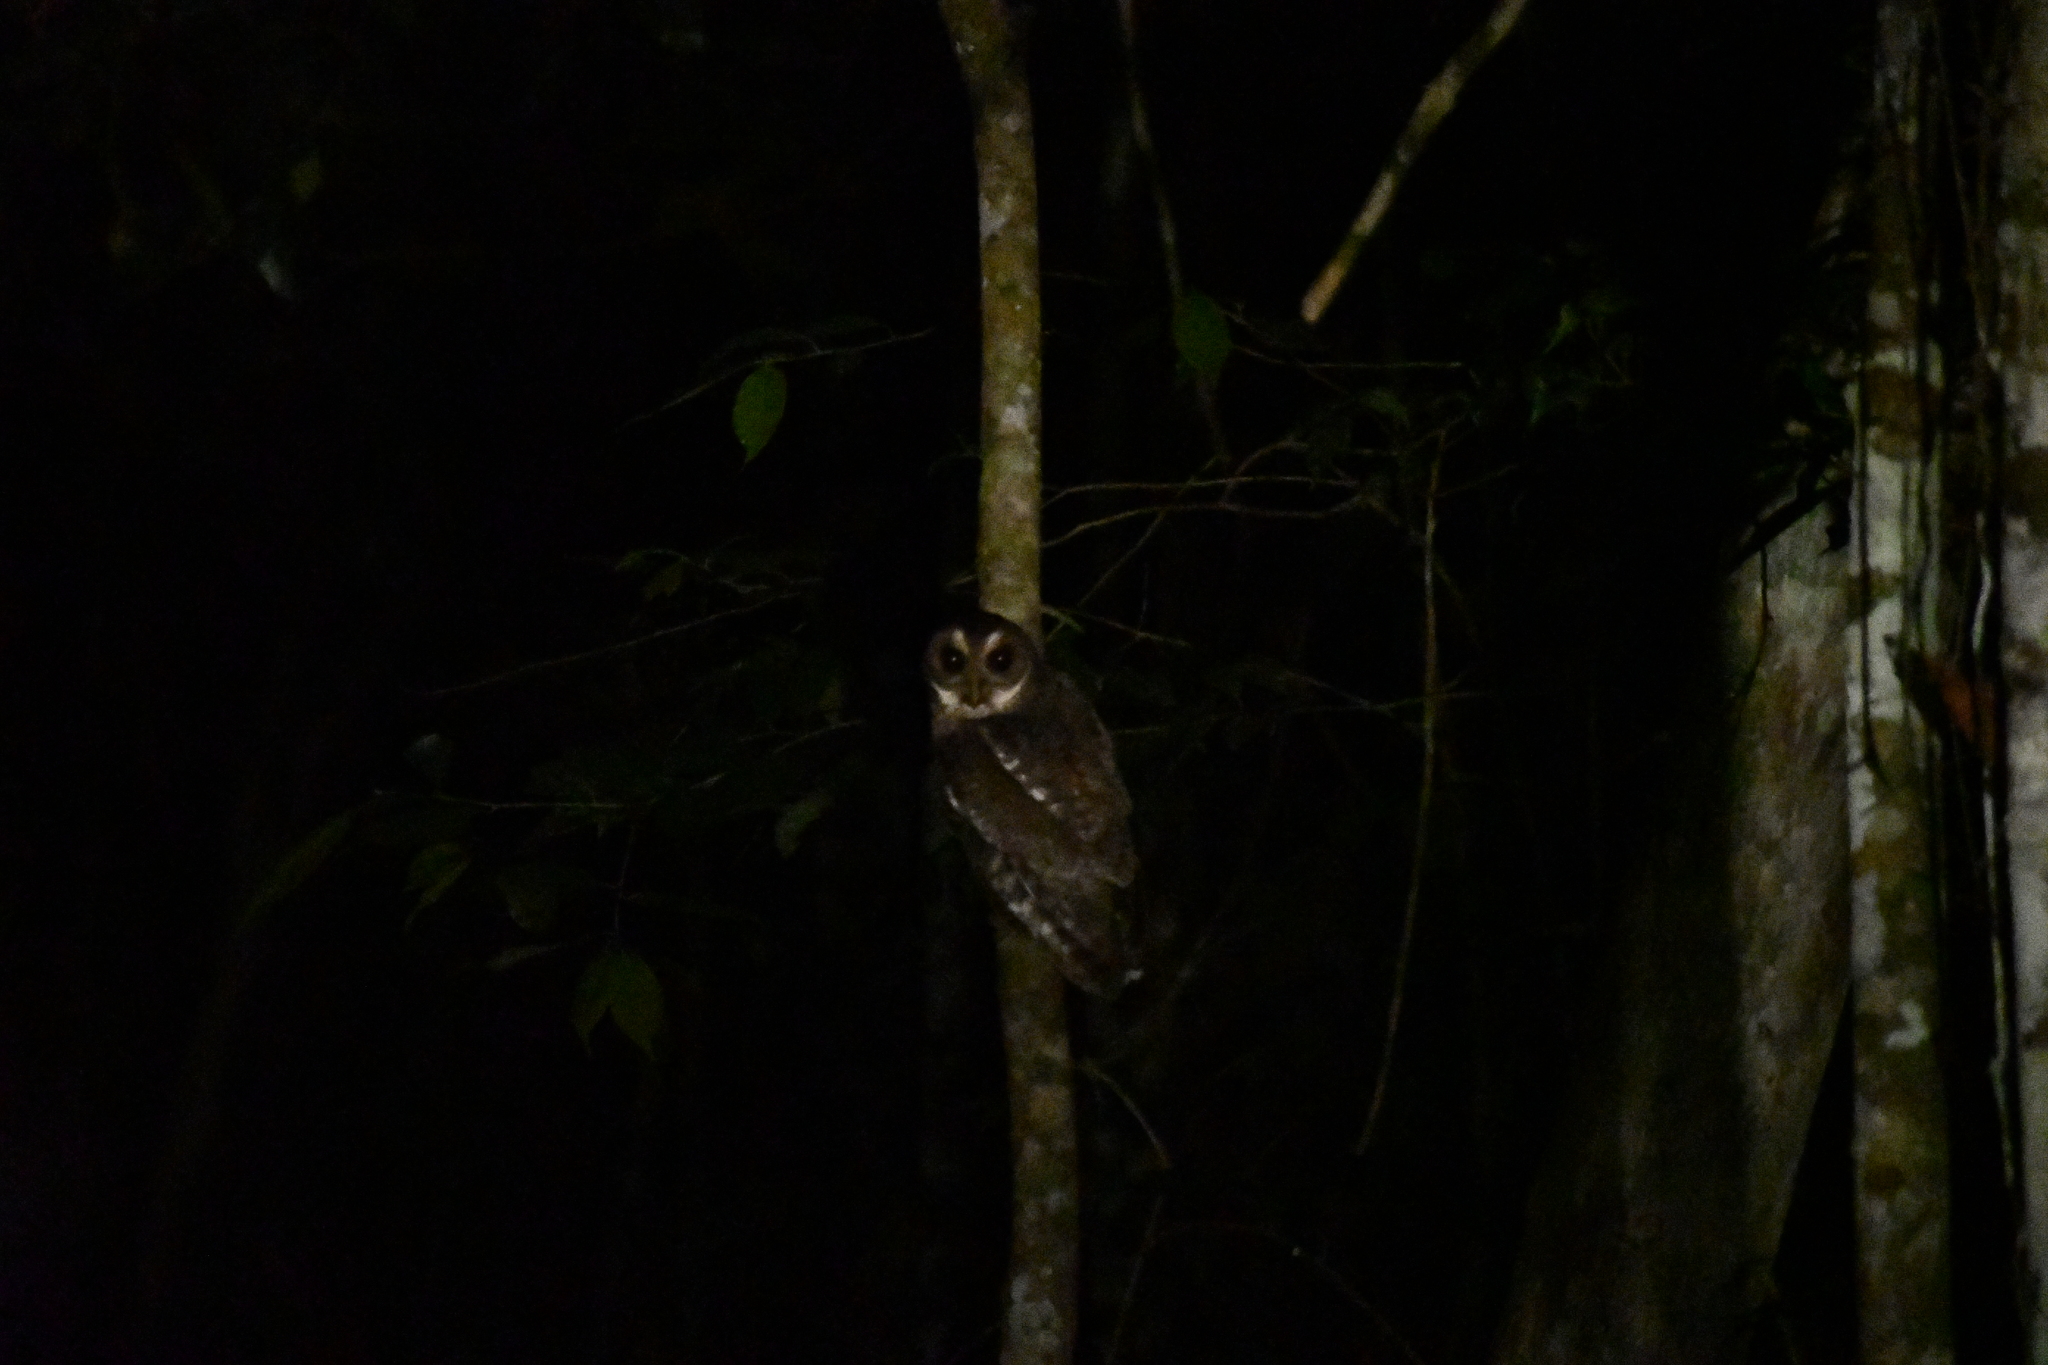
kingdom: Animalia
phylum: Chordata
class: Aves
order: Strigiformes
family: Strigidae
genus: Strix
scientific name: Strix virgata
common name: Mottled owl
